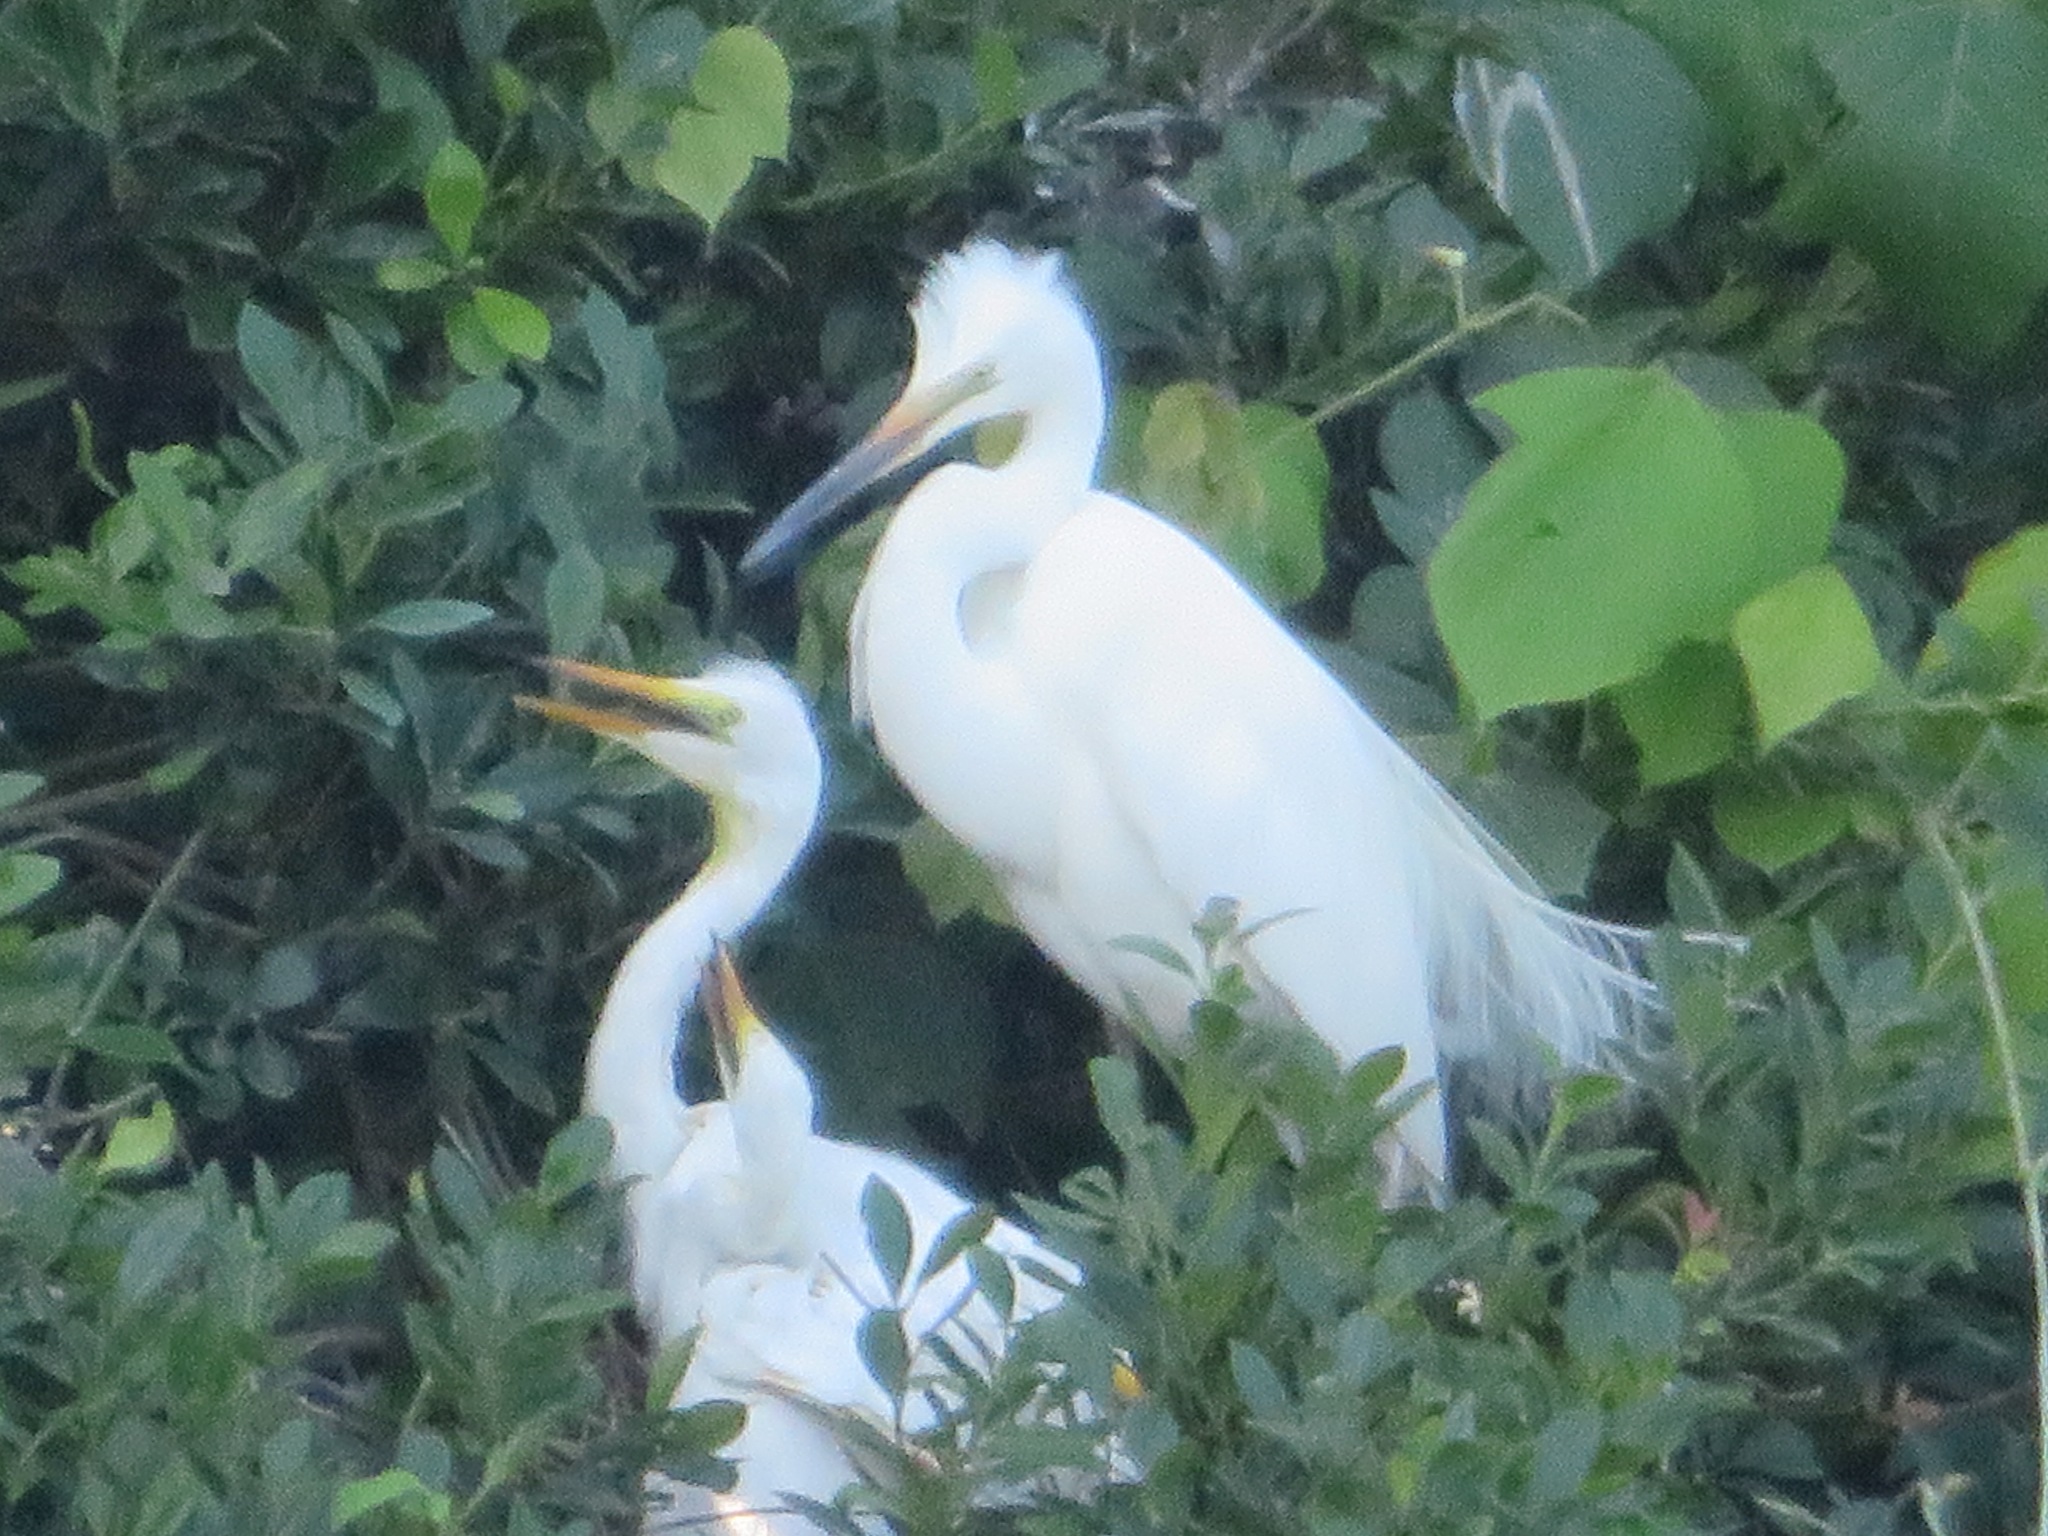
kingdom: Animalia
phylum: Chordata
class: Aves
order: Pelecaniformes
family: Ardeidae
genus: Ardea
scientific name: Ardea alba
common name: Great egret
